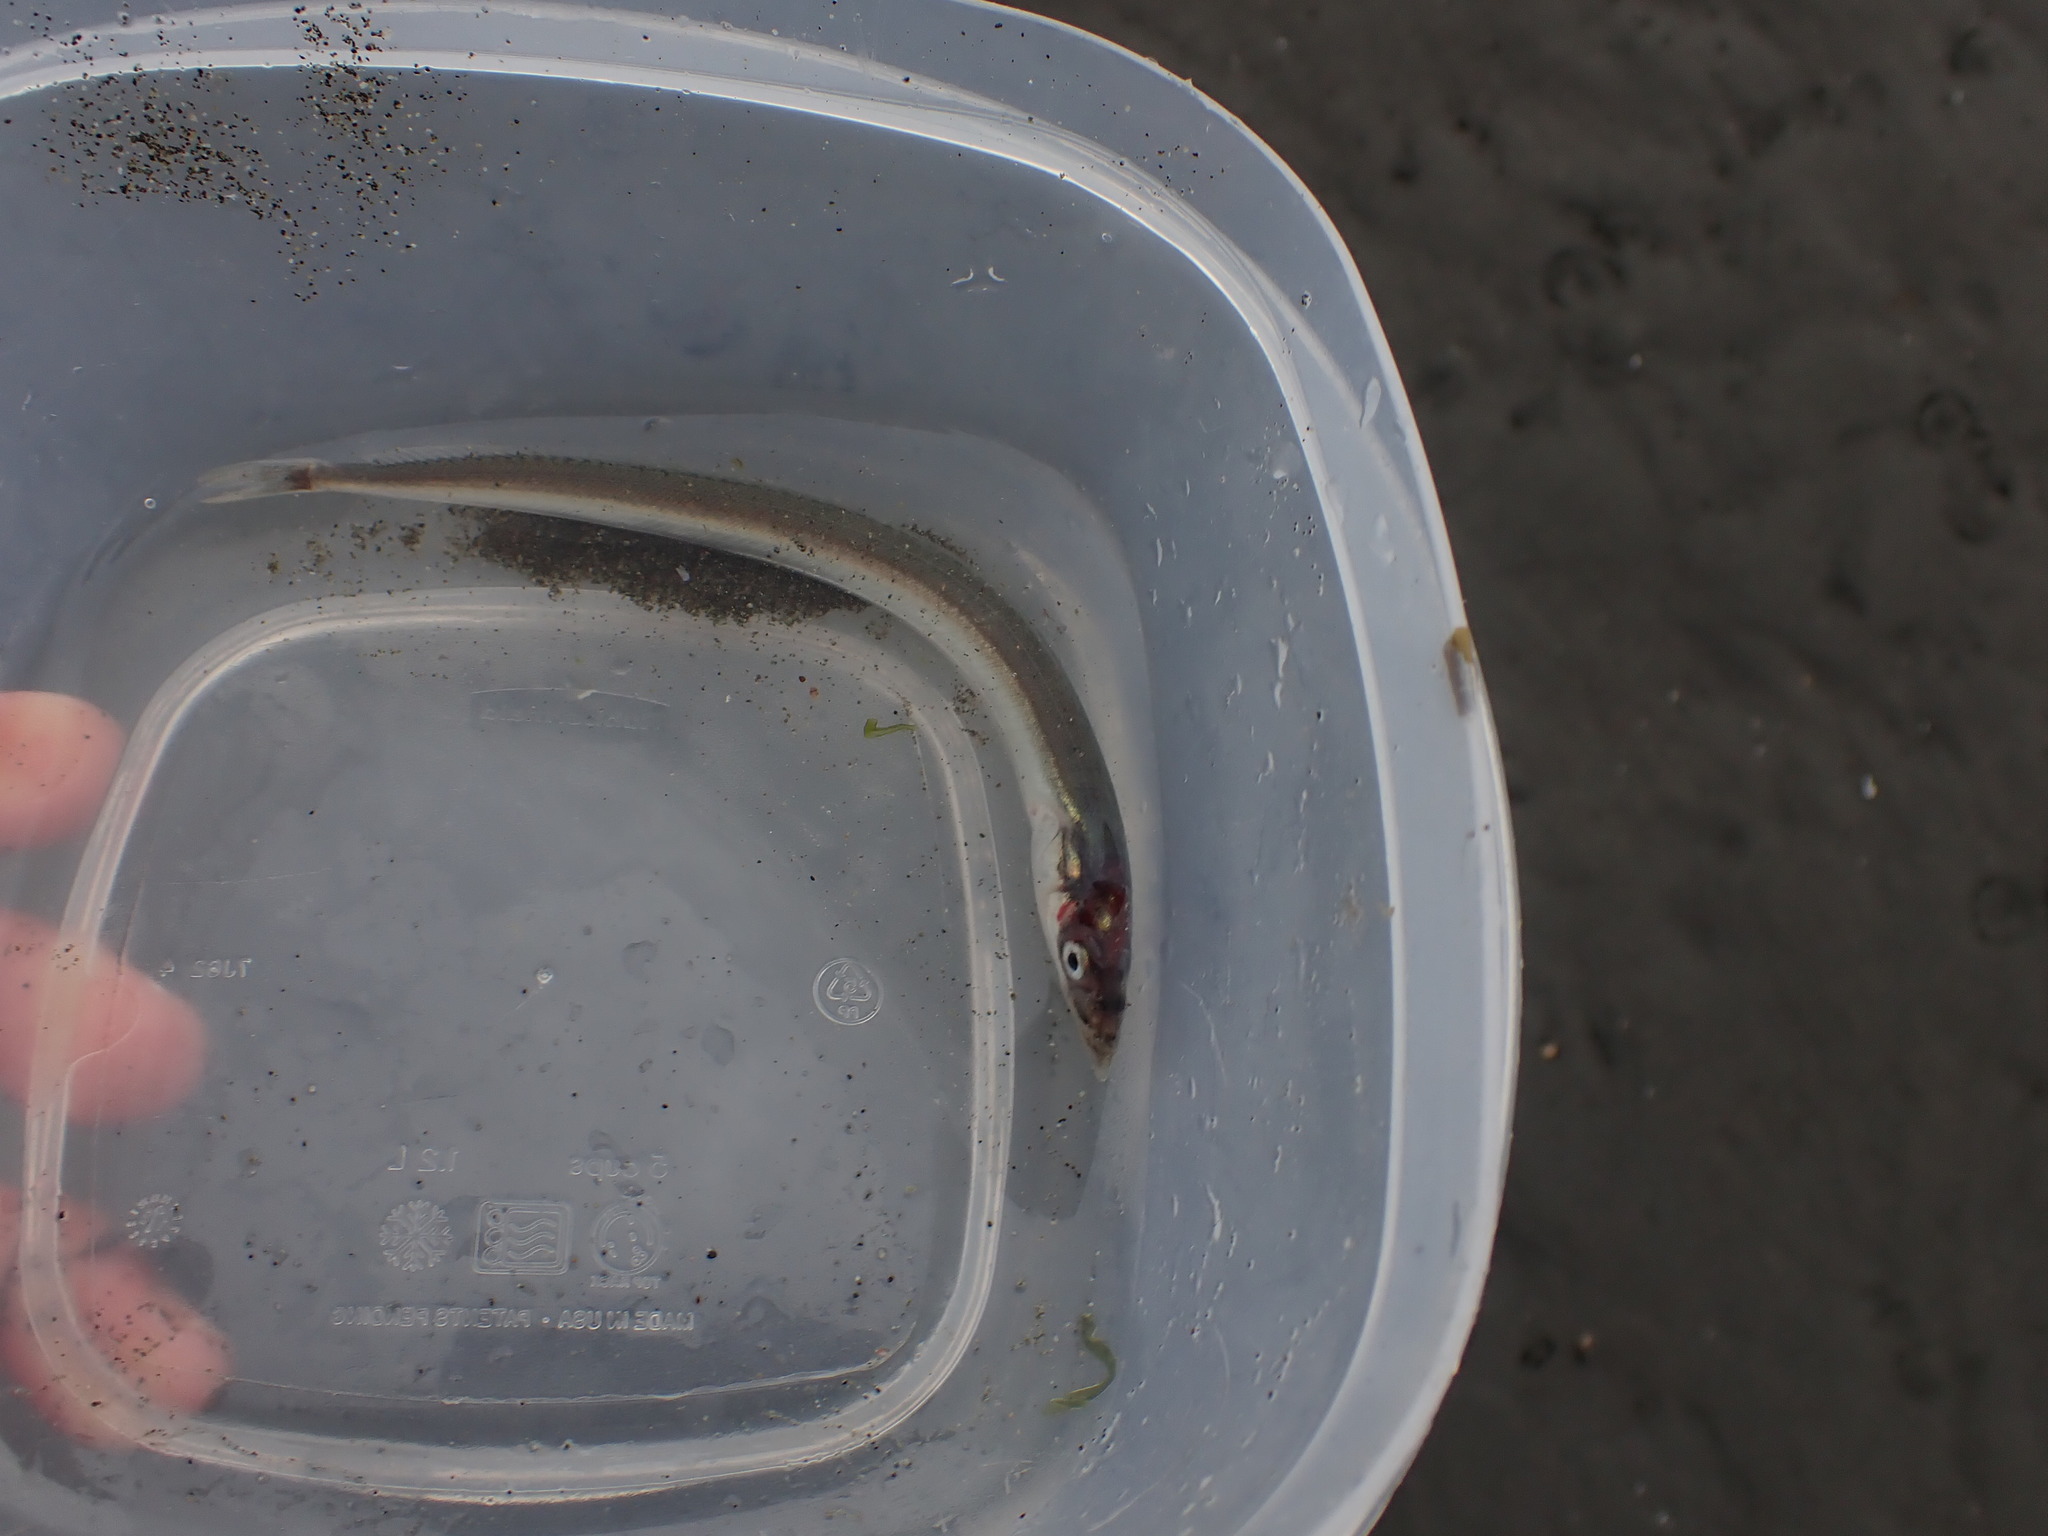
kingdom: Animalia
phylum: Chordata
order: Perciformes
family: Ammodytidae
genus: Ammodytes
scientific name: Ammodytes personatus
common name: Japanese sand lance
